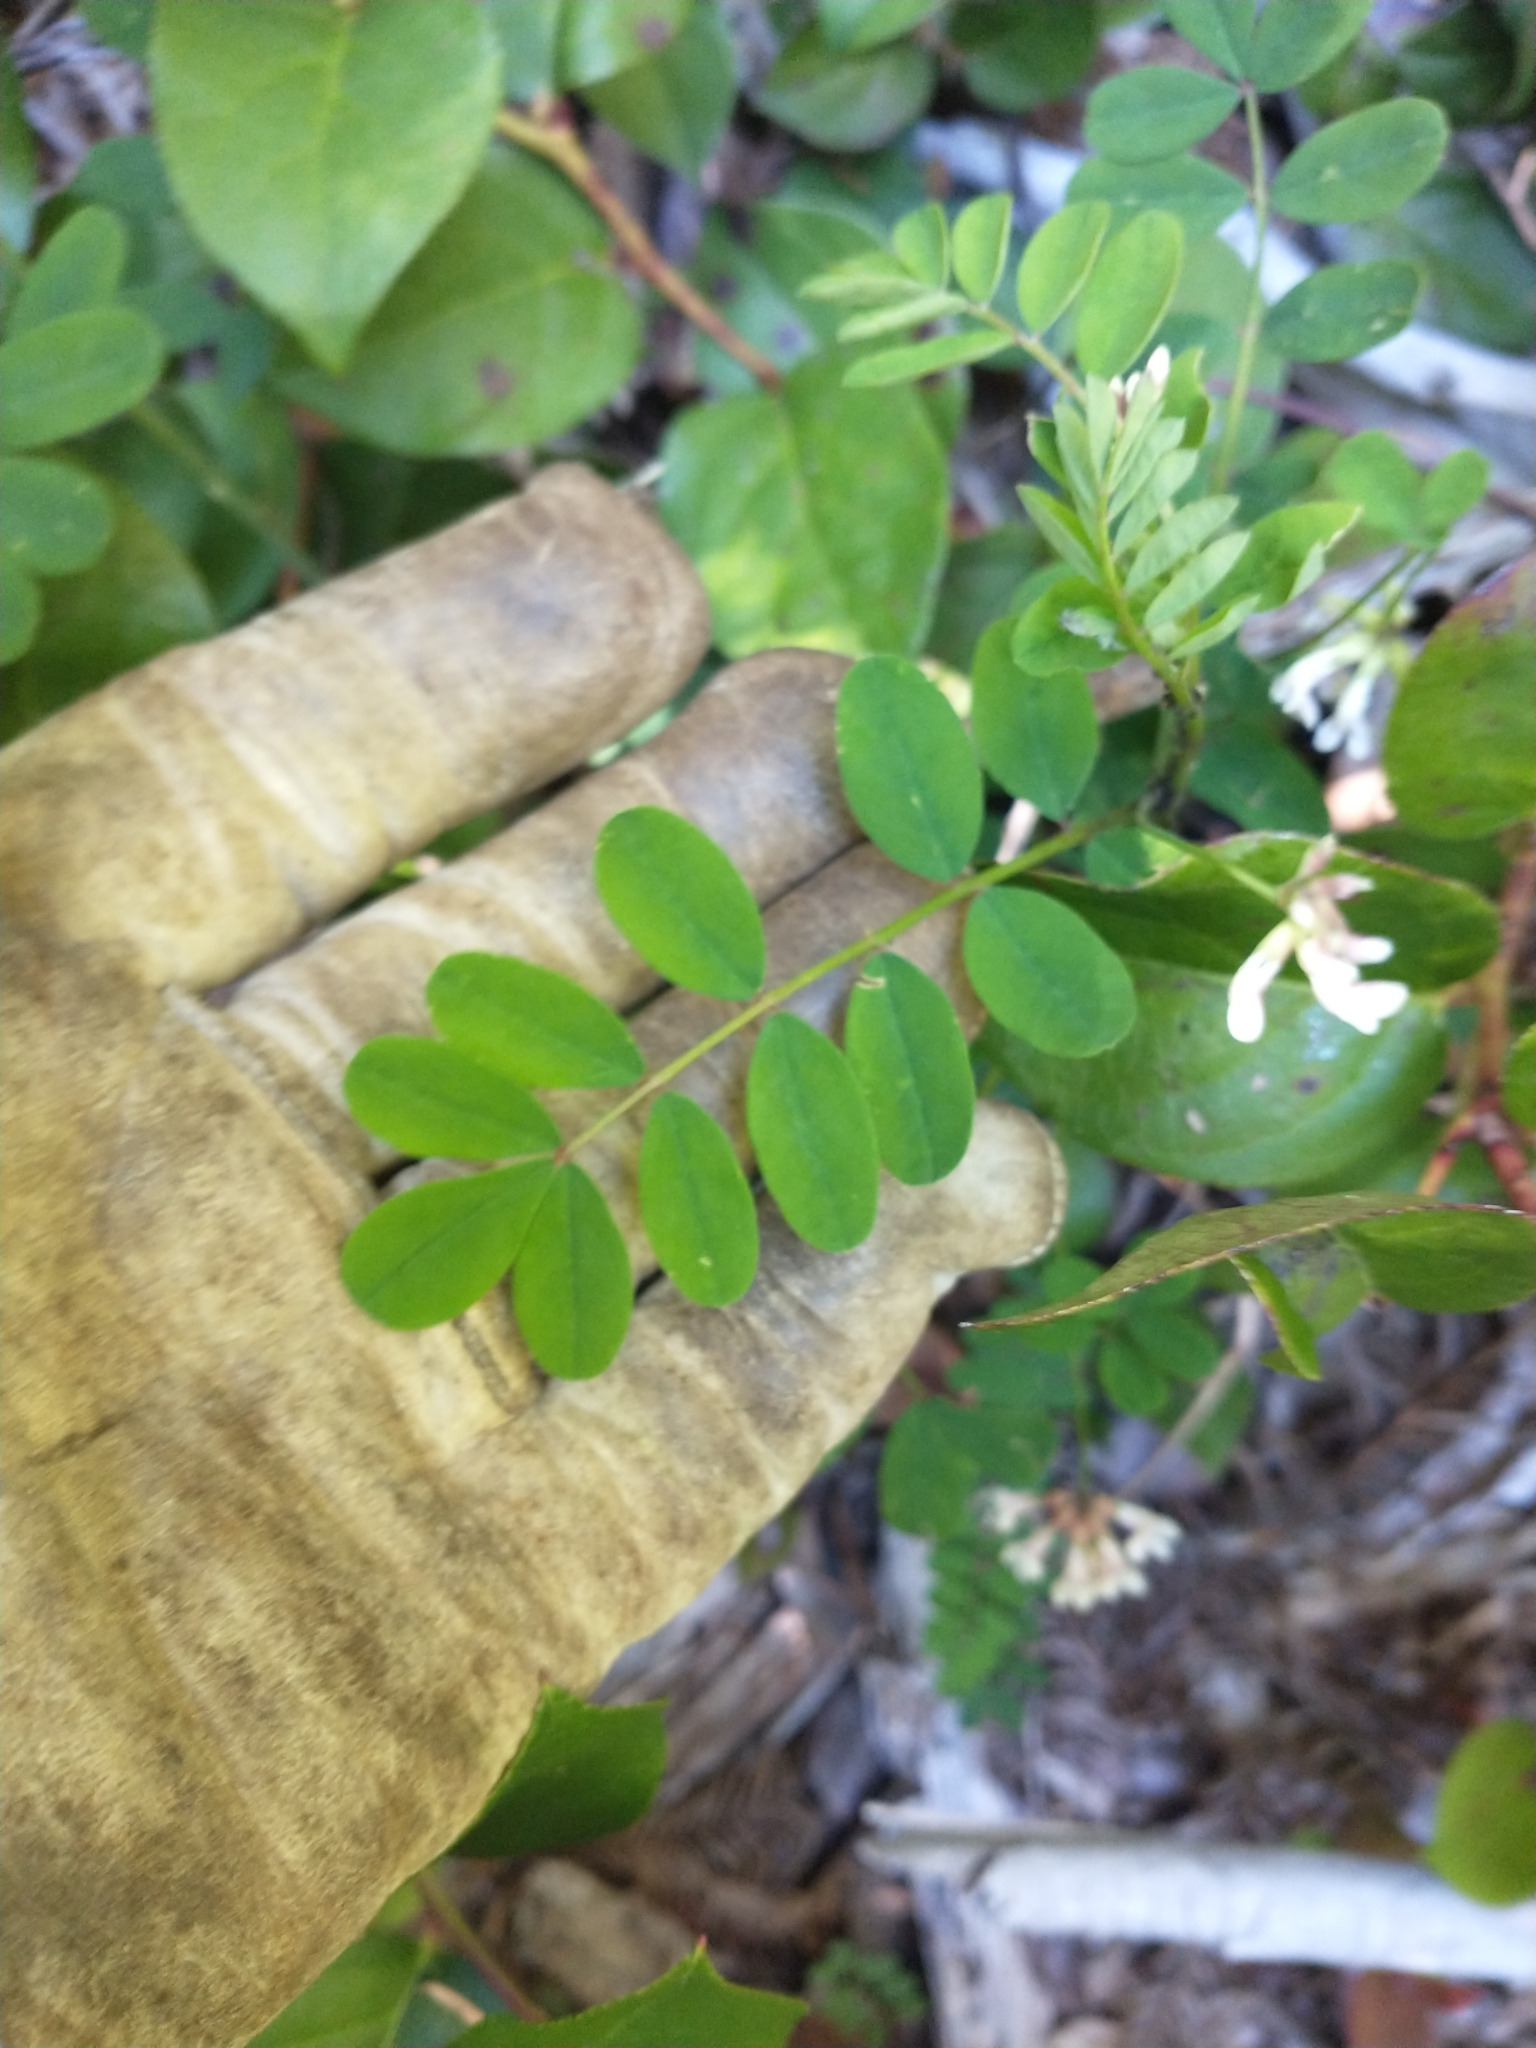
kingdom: Plantae
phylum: Tracheophyta
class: Magnoliopsida
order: Fabales
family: Fabaceae
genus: Hosackia
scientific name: Hosackia rosea
